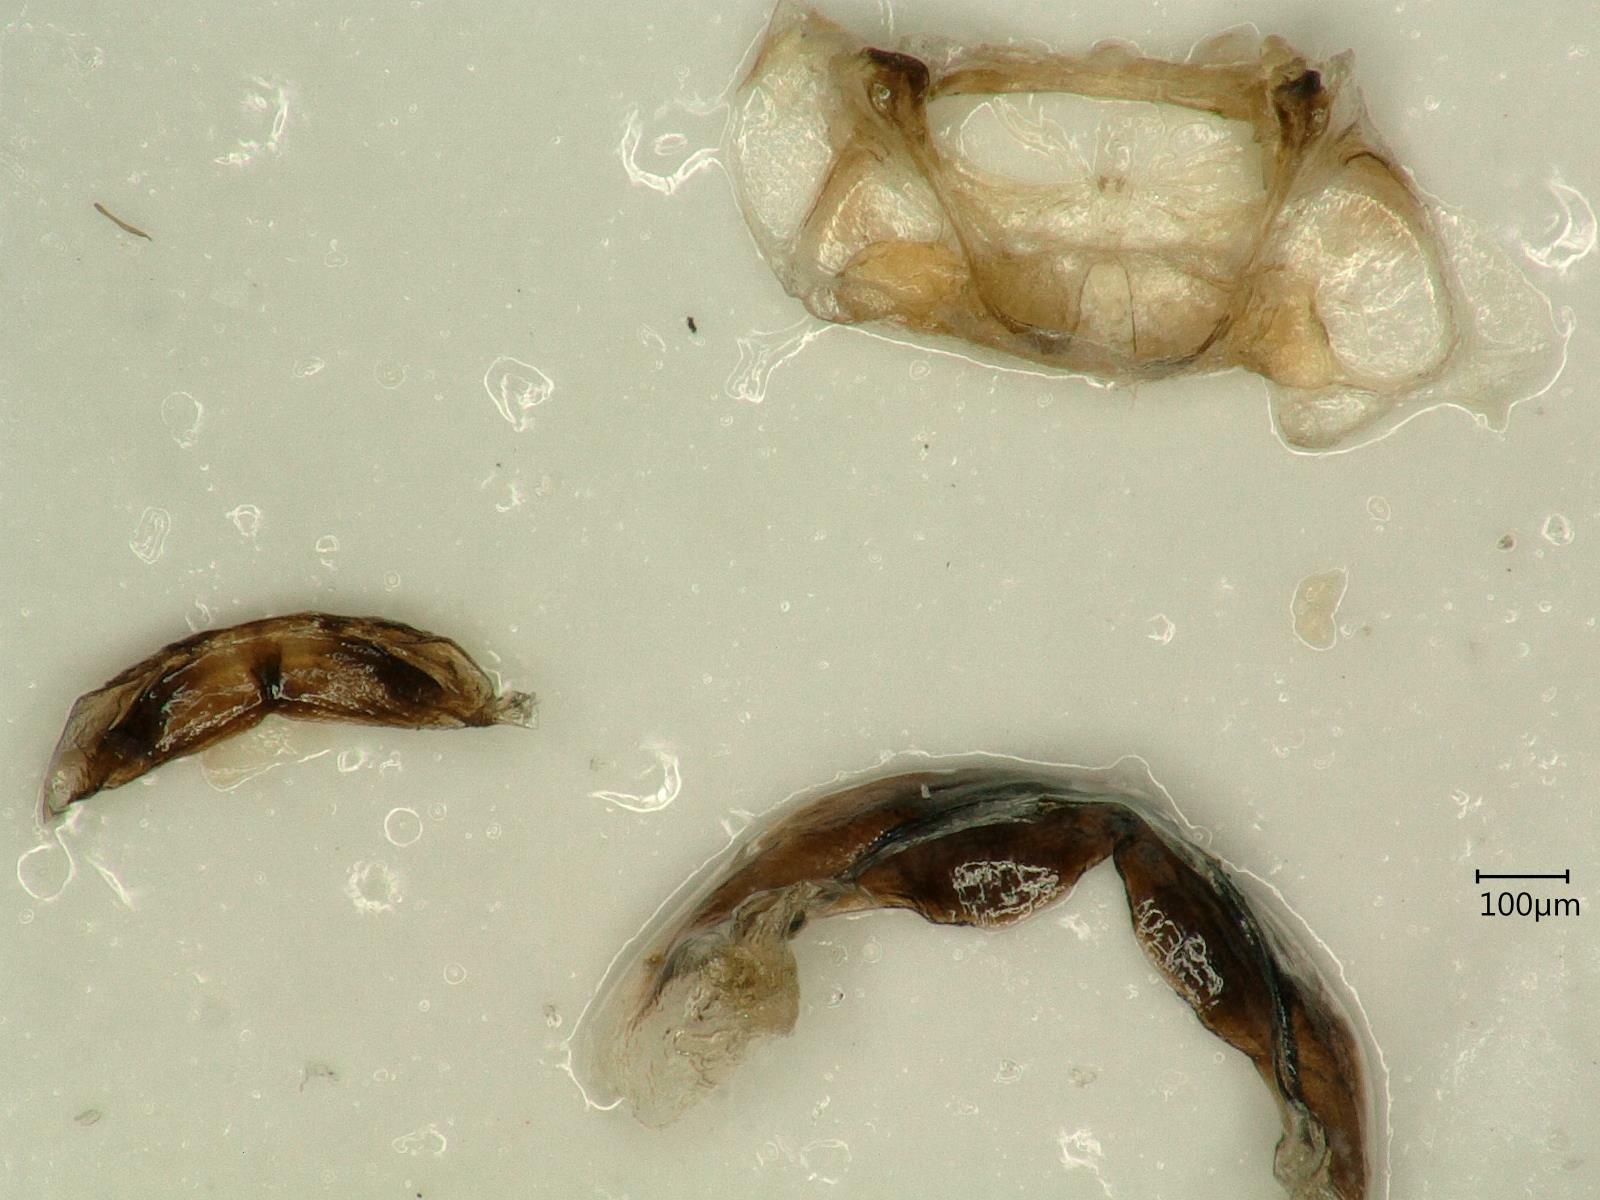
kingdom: Animalia
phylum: Arthropoda
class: Insecta
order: Hemiptera
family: Cicadellidae
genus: Kybos
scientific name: Kybos strobli
